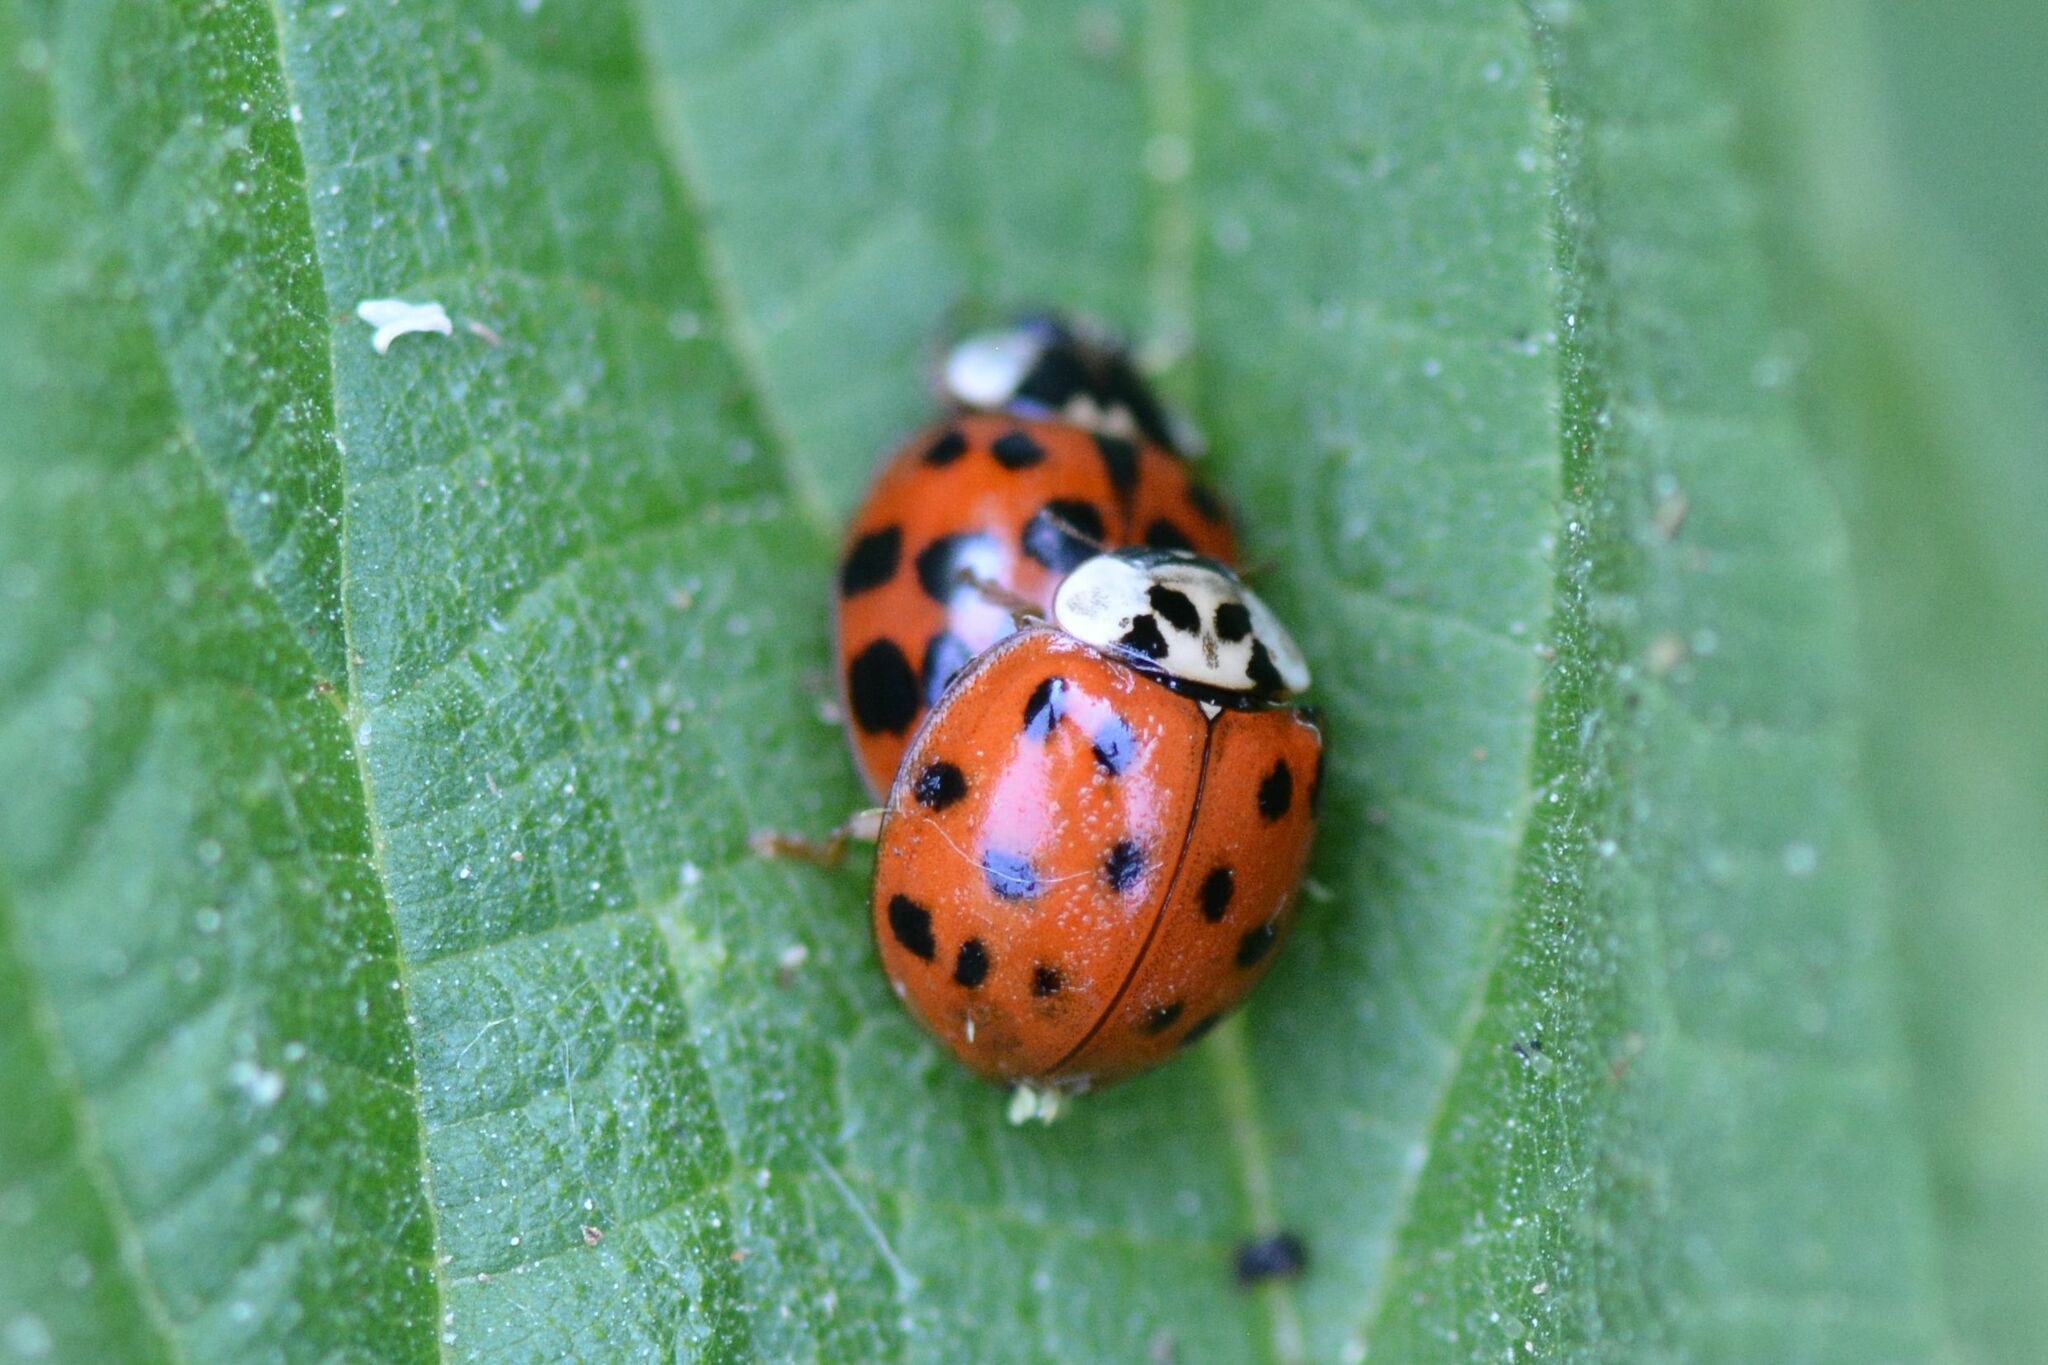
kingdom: Animalia
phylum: Arthropoda
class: Insecta
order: Coleoptera
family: Coccinellidae
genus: Harmonia
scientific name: Harmonia axyridis
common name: Harlequin ladybird
